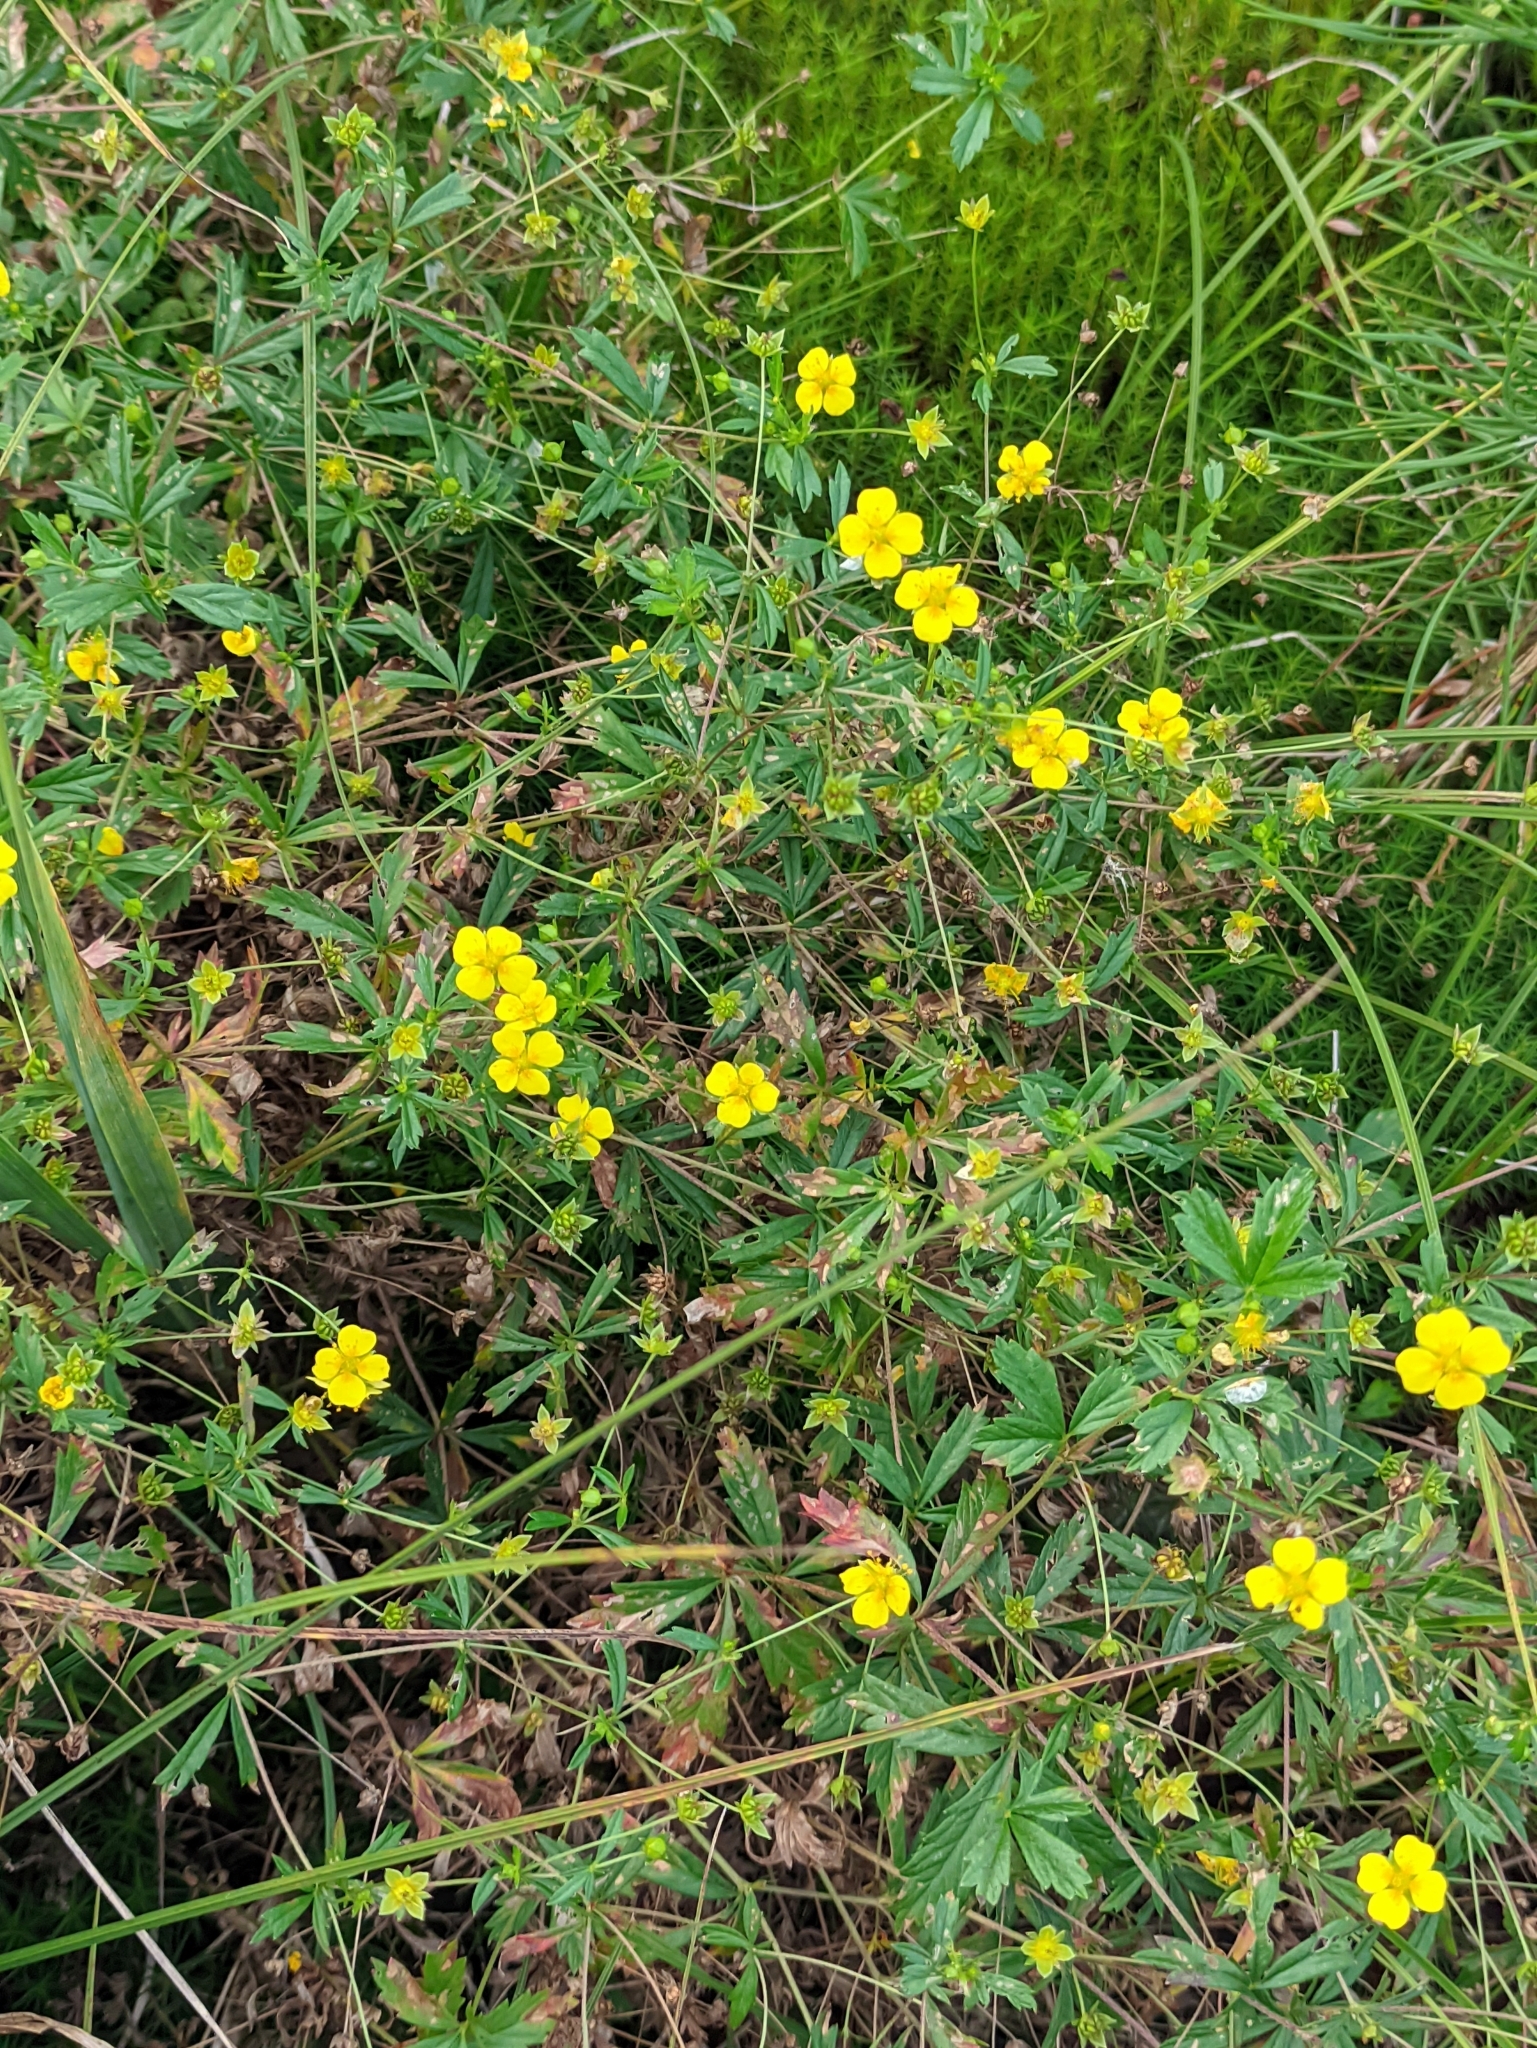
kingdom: Plantae
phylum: Tracheophyta
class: Magnoliopsida
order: Rosales
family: Rosaceae
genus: Potentilla
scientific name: Potentilla erecta
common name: Tormentil
